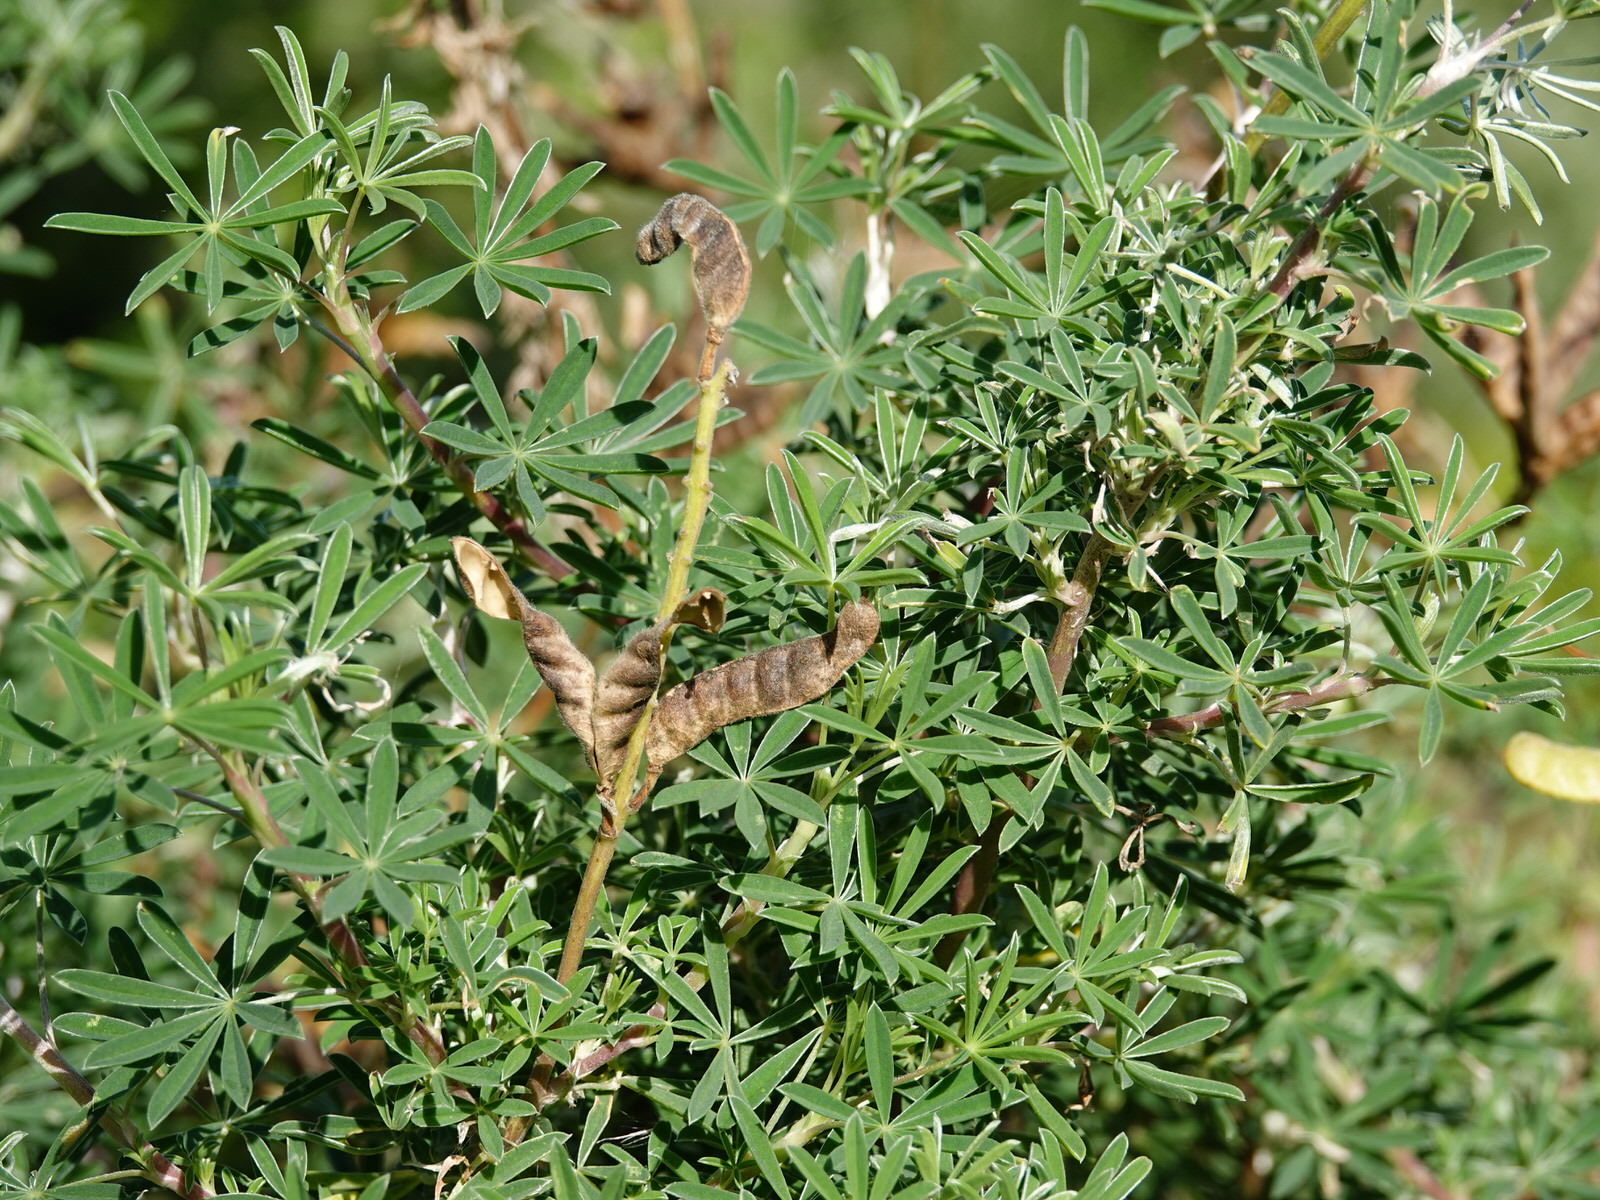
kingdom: Plantae
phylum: Tracheophyta
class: Magnoliopsida
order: Fabales
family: Fabaceae
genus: Lupinus
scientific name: Lupinus arboreus
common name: Yellow bush lupine
